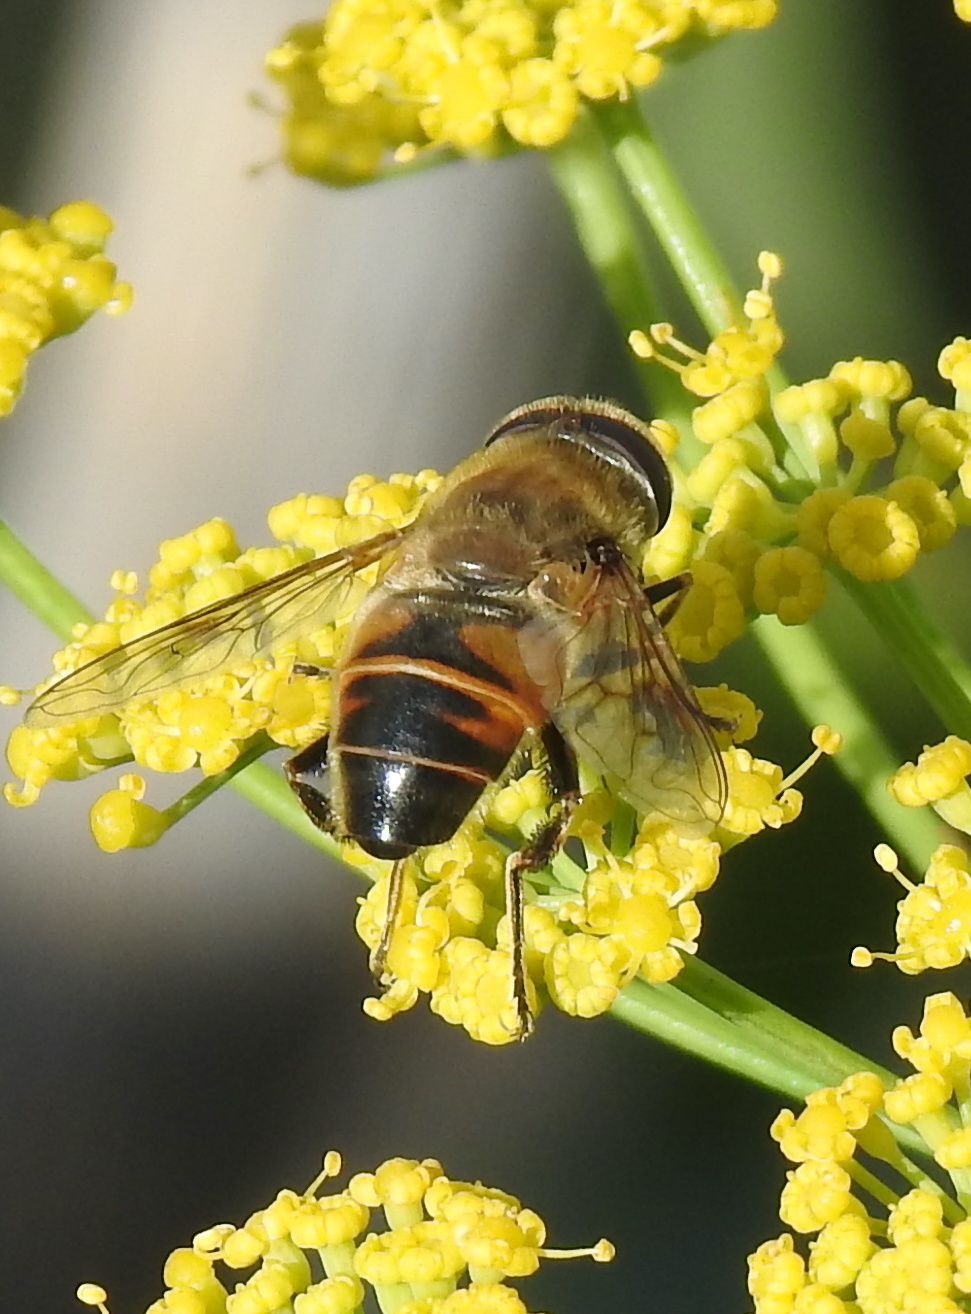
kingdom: Animalia
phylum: Arthropoda
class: Insecta
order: Diptera
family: Syrphidae
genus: Eristalis
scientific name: Eristalis tenax
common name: Drone fly
